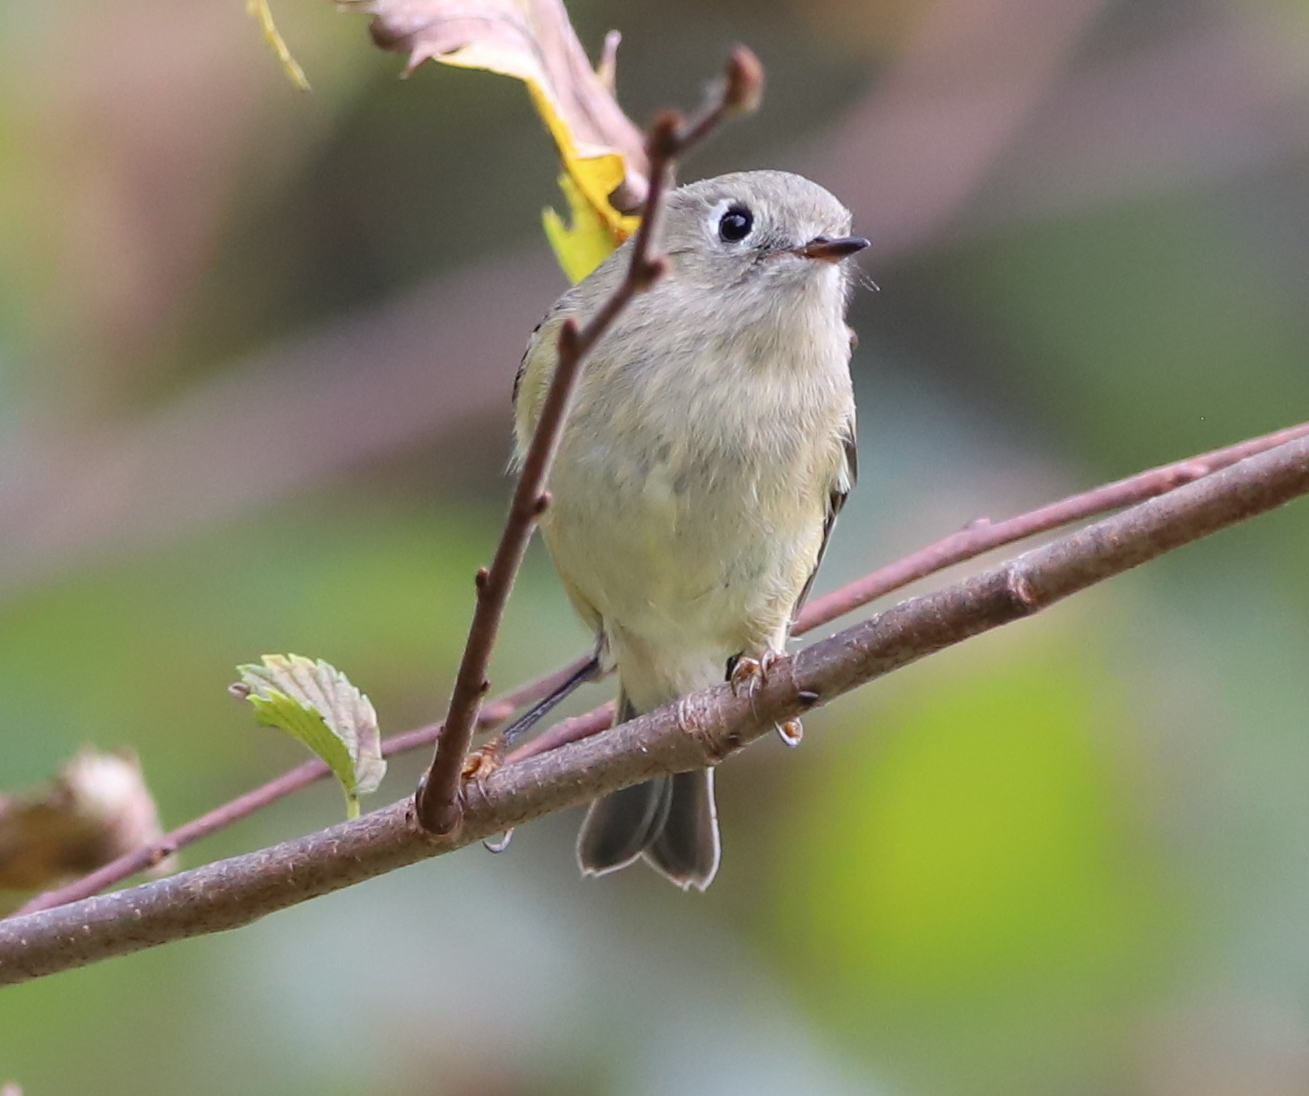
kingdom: Animalia
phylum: Chordata
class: Aves
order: Passeriformes
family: Regulidae
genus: Regulus
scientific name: Regulus calendula
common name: Ruby-crowned kinglet
